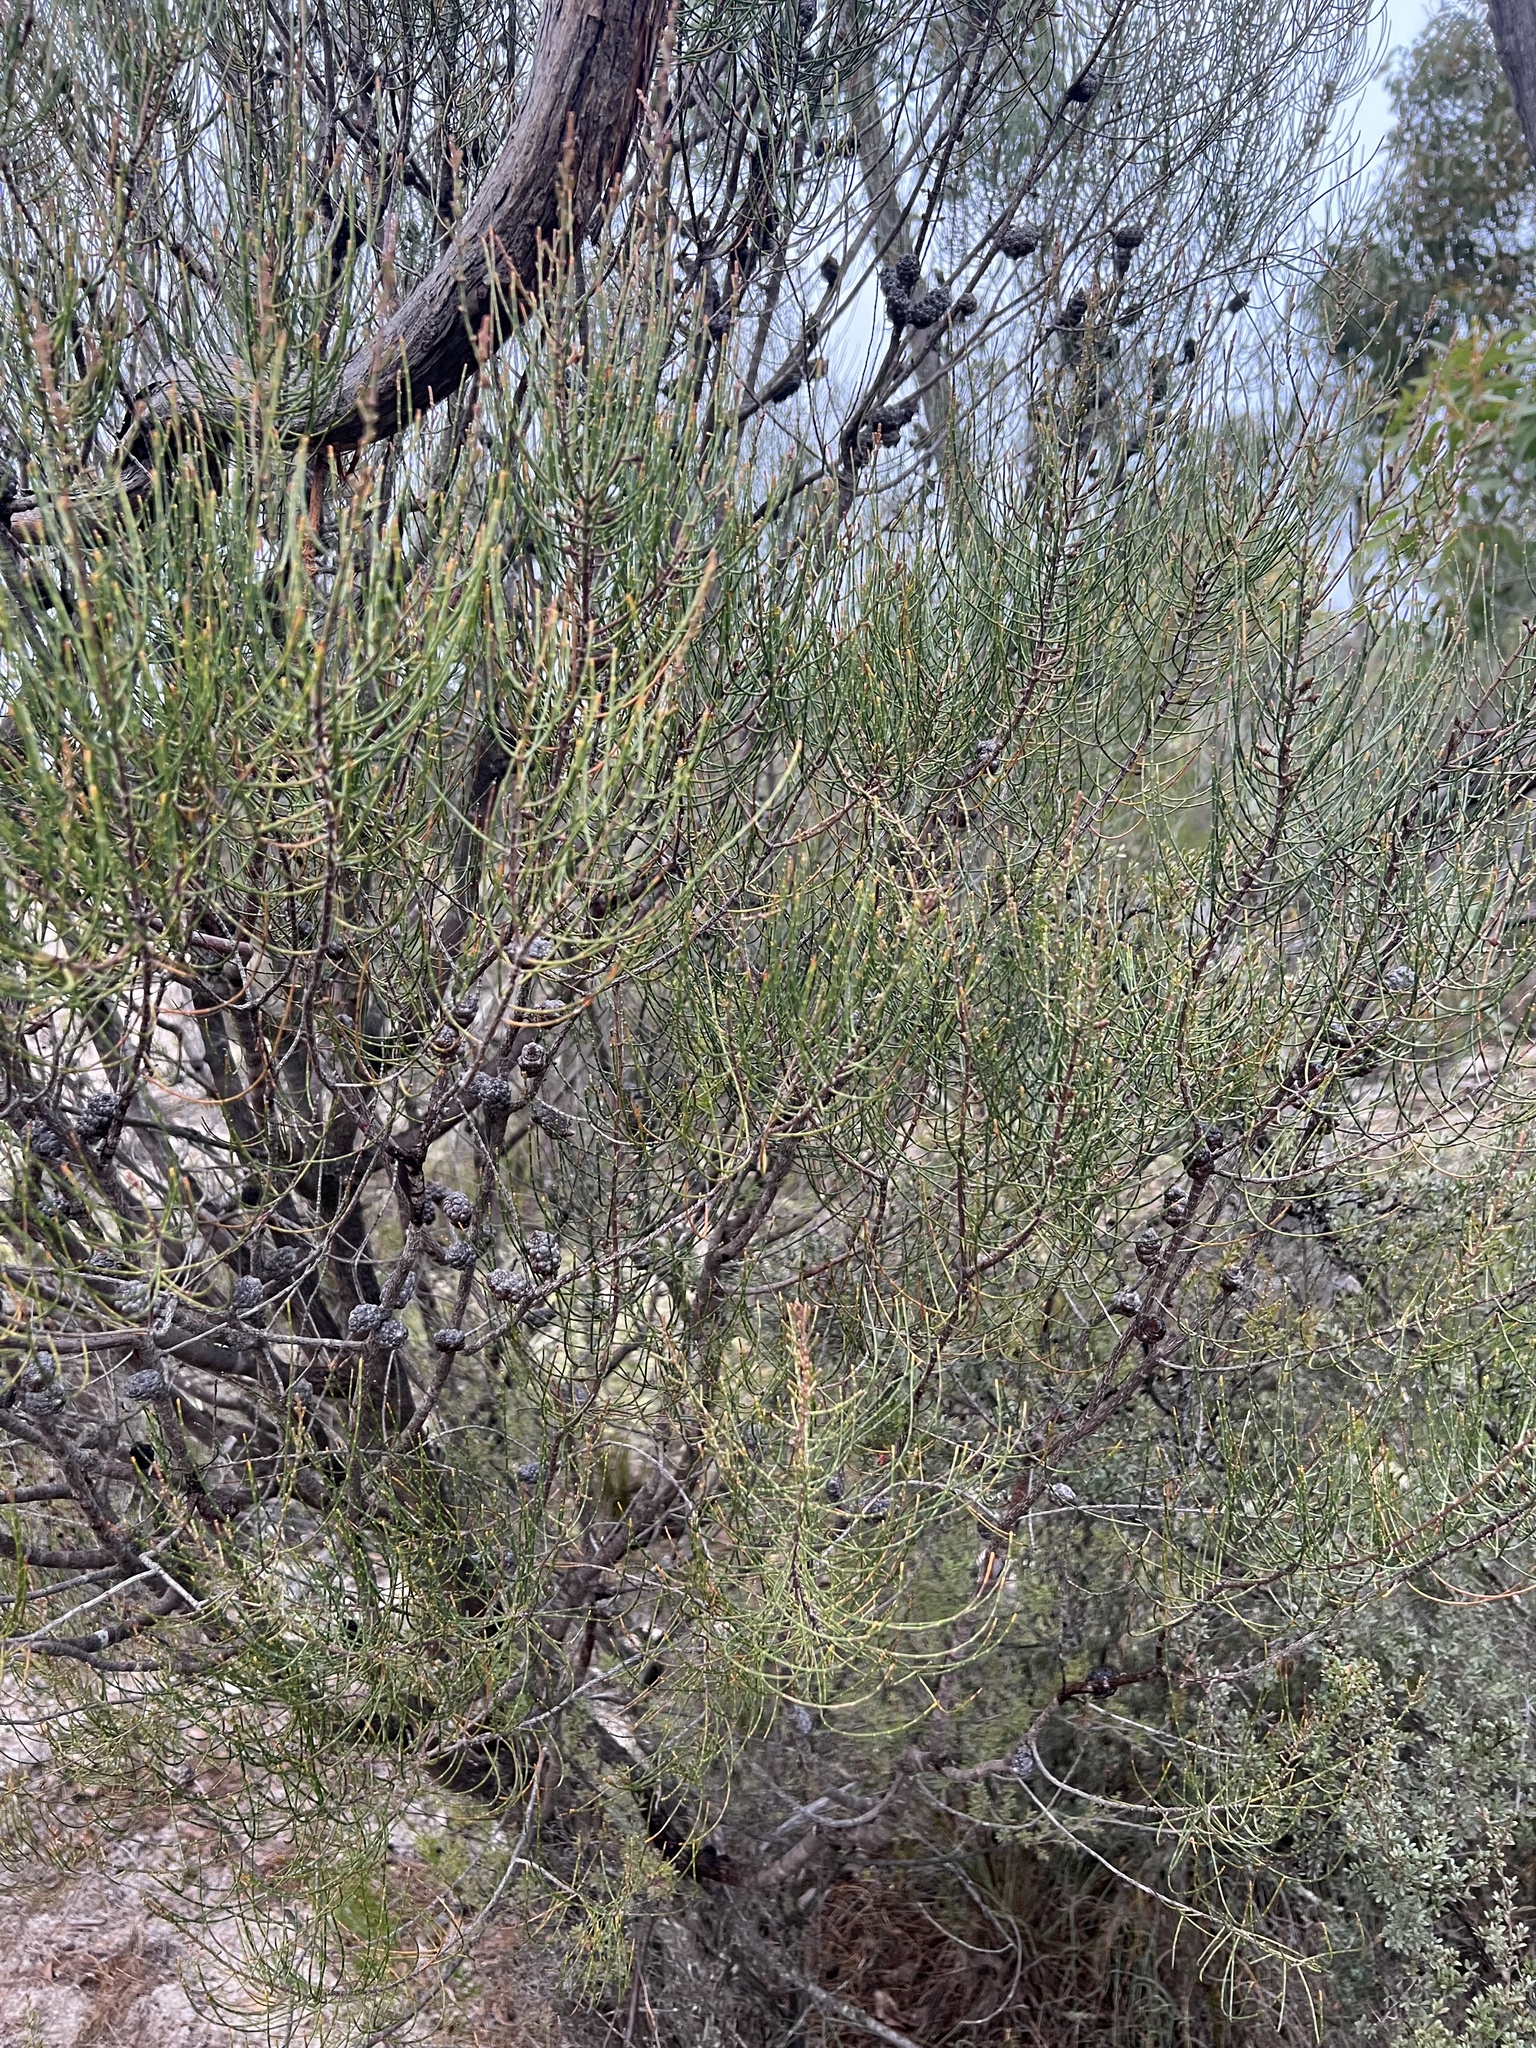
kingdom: Plantae
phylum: Tracheophyta
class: Magnoliopsida
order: Fagales
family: Casuarinaceae
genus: Allocasuarina
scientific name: Allocasuarina muelleriana
